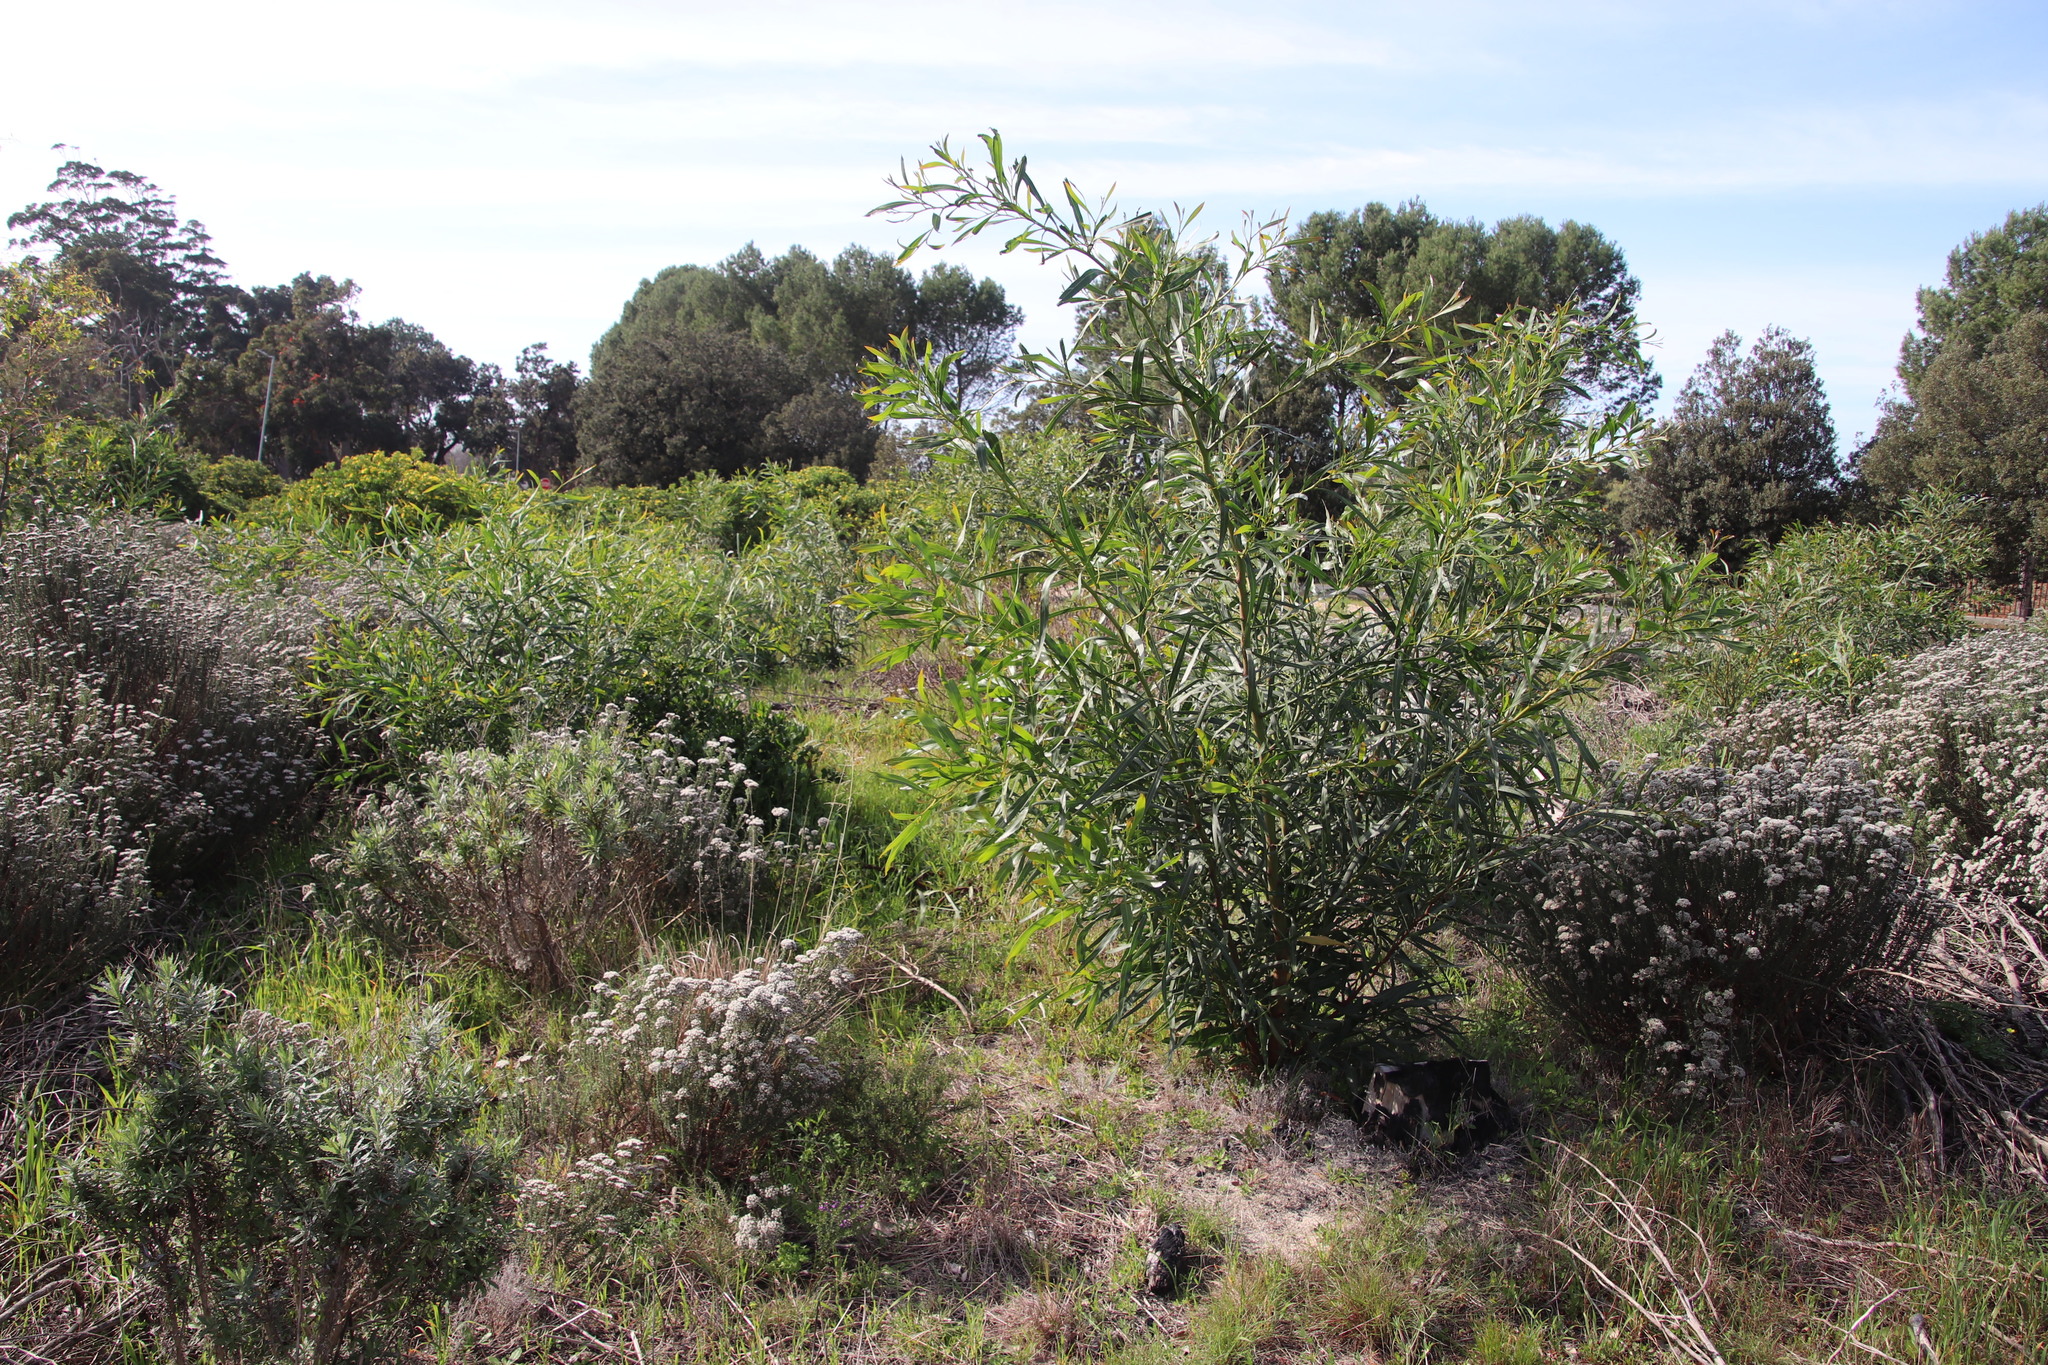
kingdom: Plantae
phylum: Tracheophyta
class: Magnoliopsida
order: Fabales
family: Fabaceae
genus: Acacia
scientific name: Acacia saligna
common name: Orange wattle
